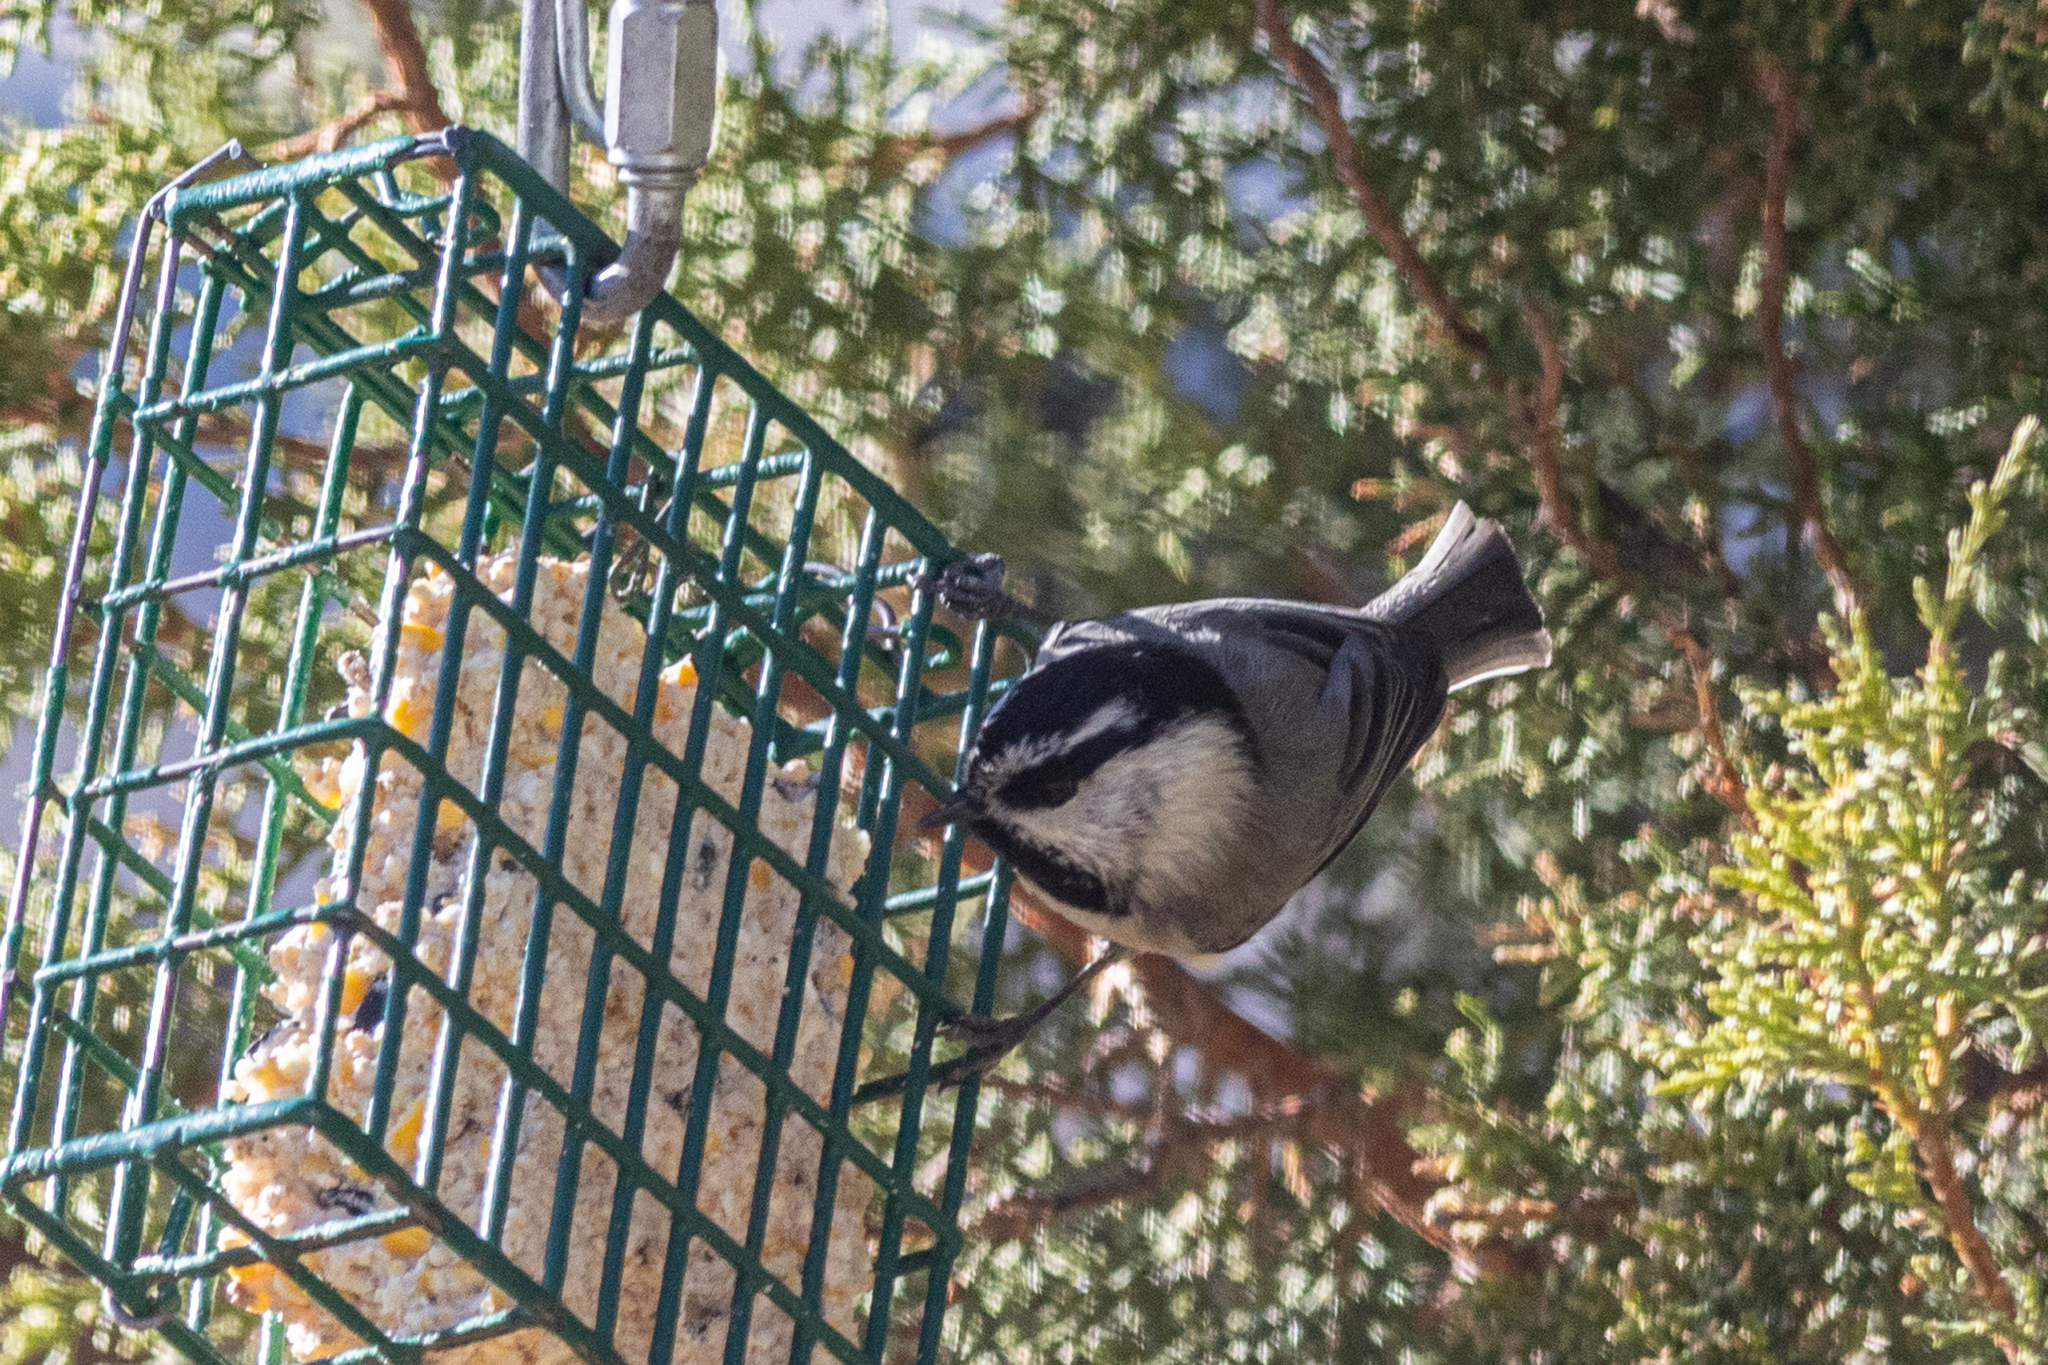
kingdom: Animalia
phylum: Chordata
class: Aves
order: Passeriformes
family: Paridae
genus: Poecile
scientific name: Poecile gambeli
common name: Mountain chickadee
